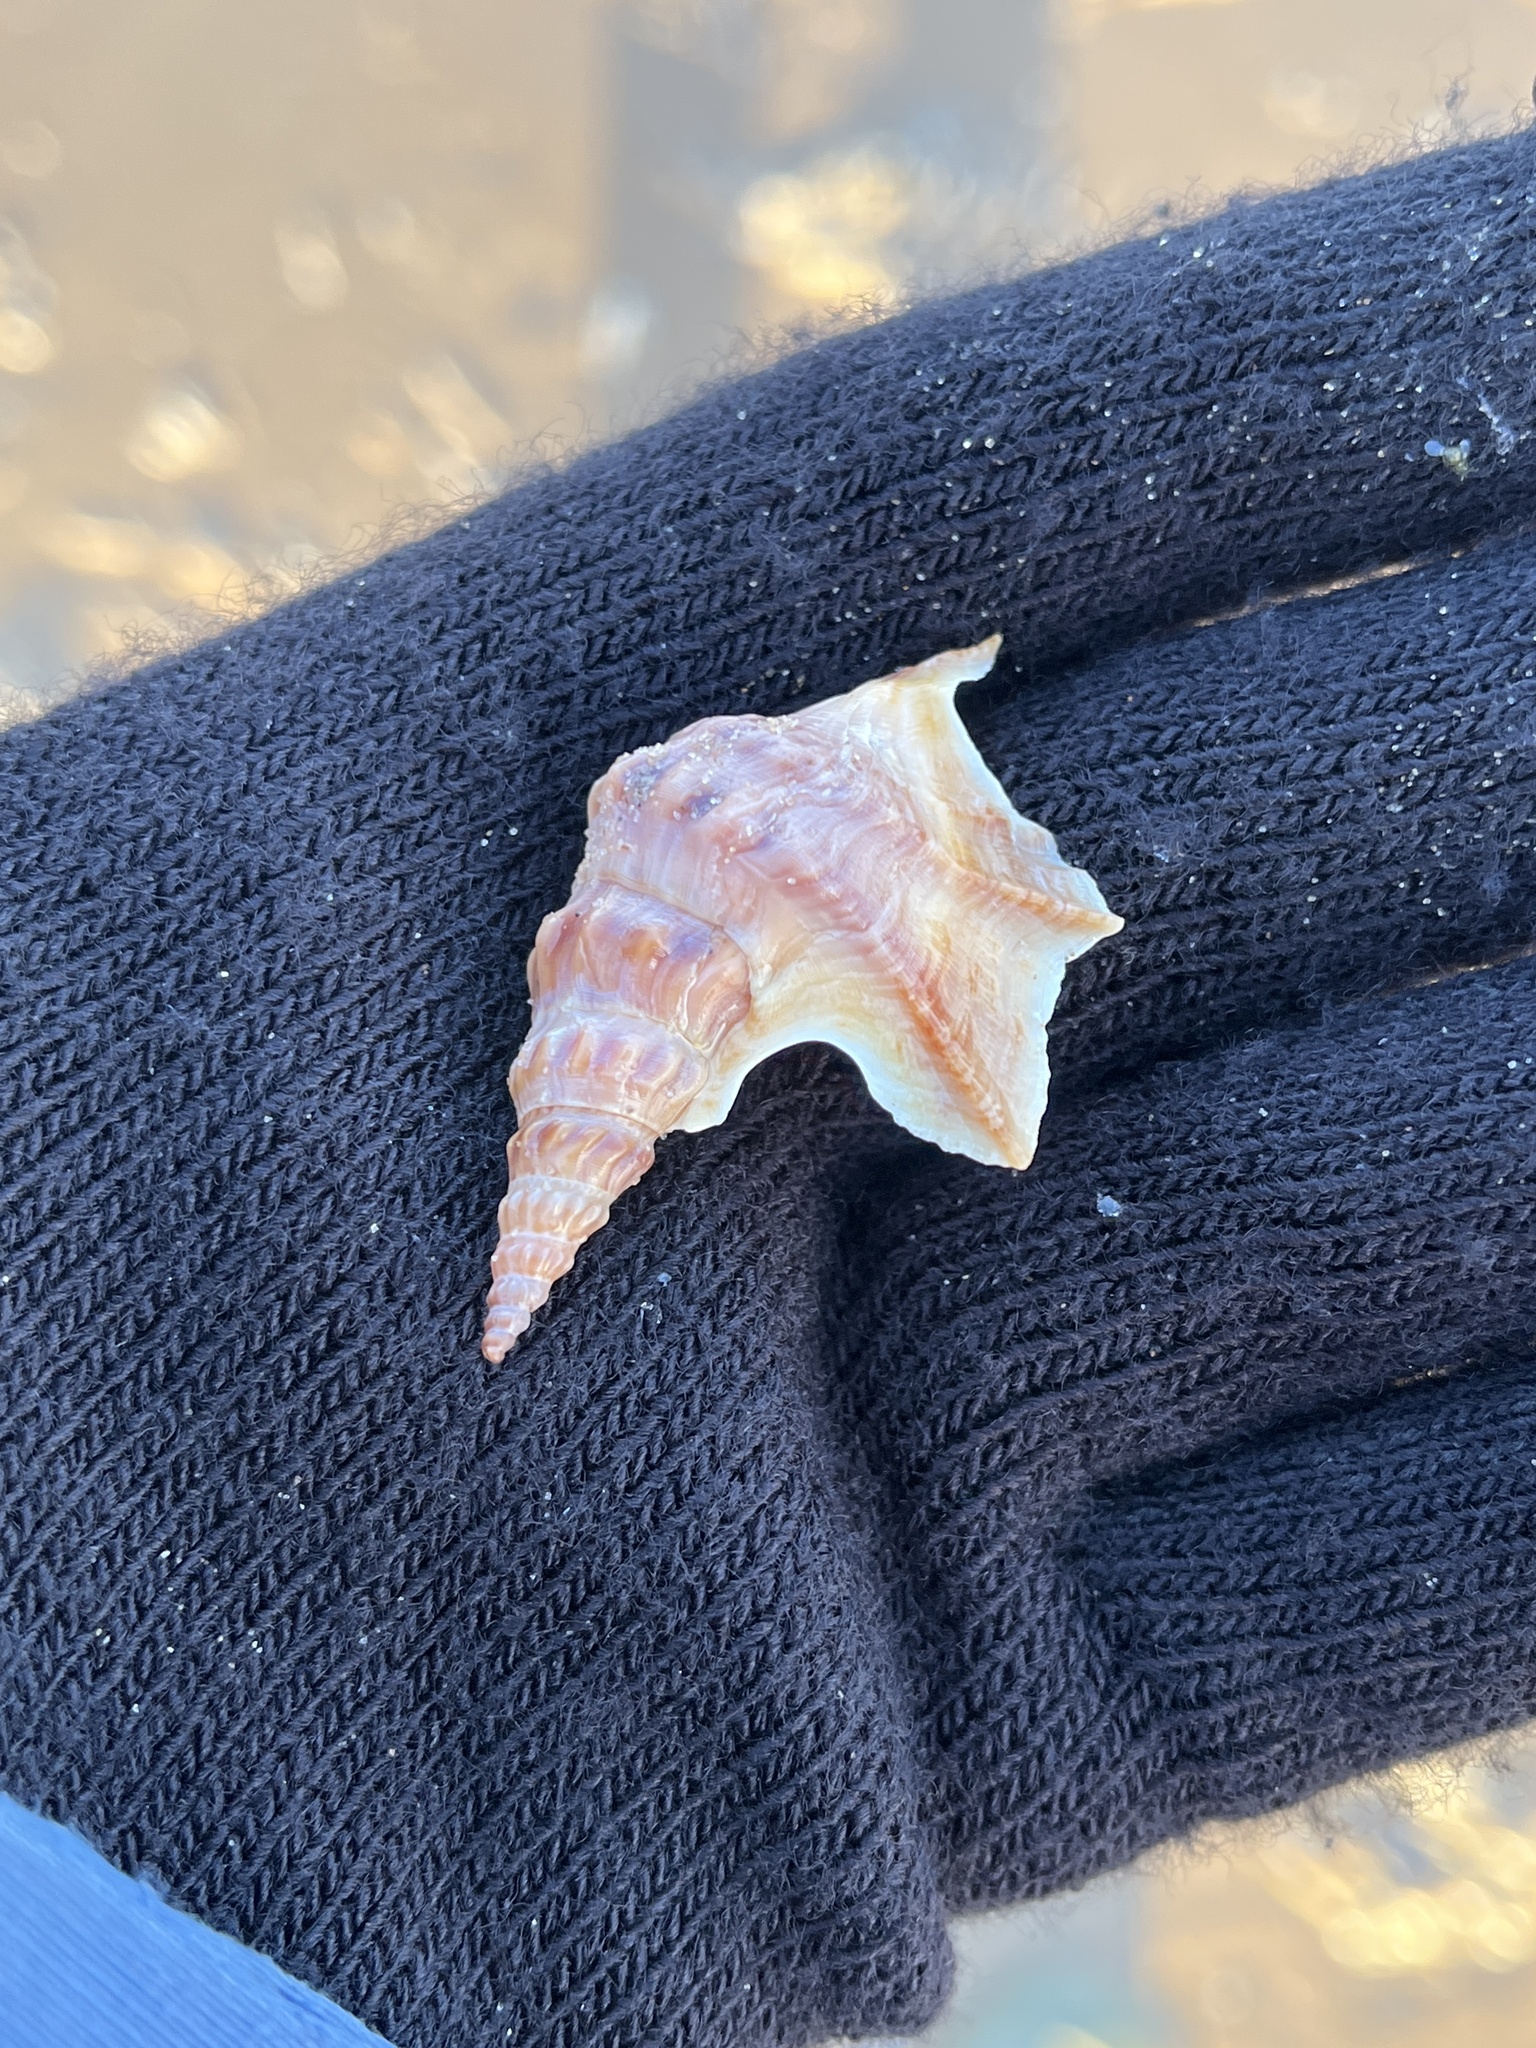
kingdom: Animalia
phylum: Mollusca
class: Gastropoda
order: Littorinimorpha
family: Aporrhaidae
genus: Aporrhais
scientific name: Aporrhais pespelecani
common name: Common pelican’s foot
